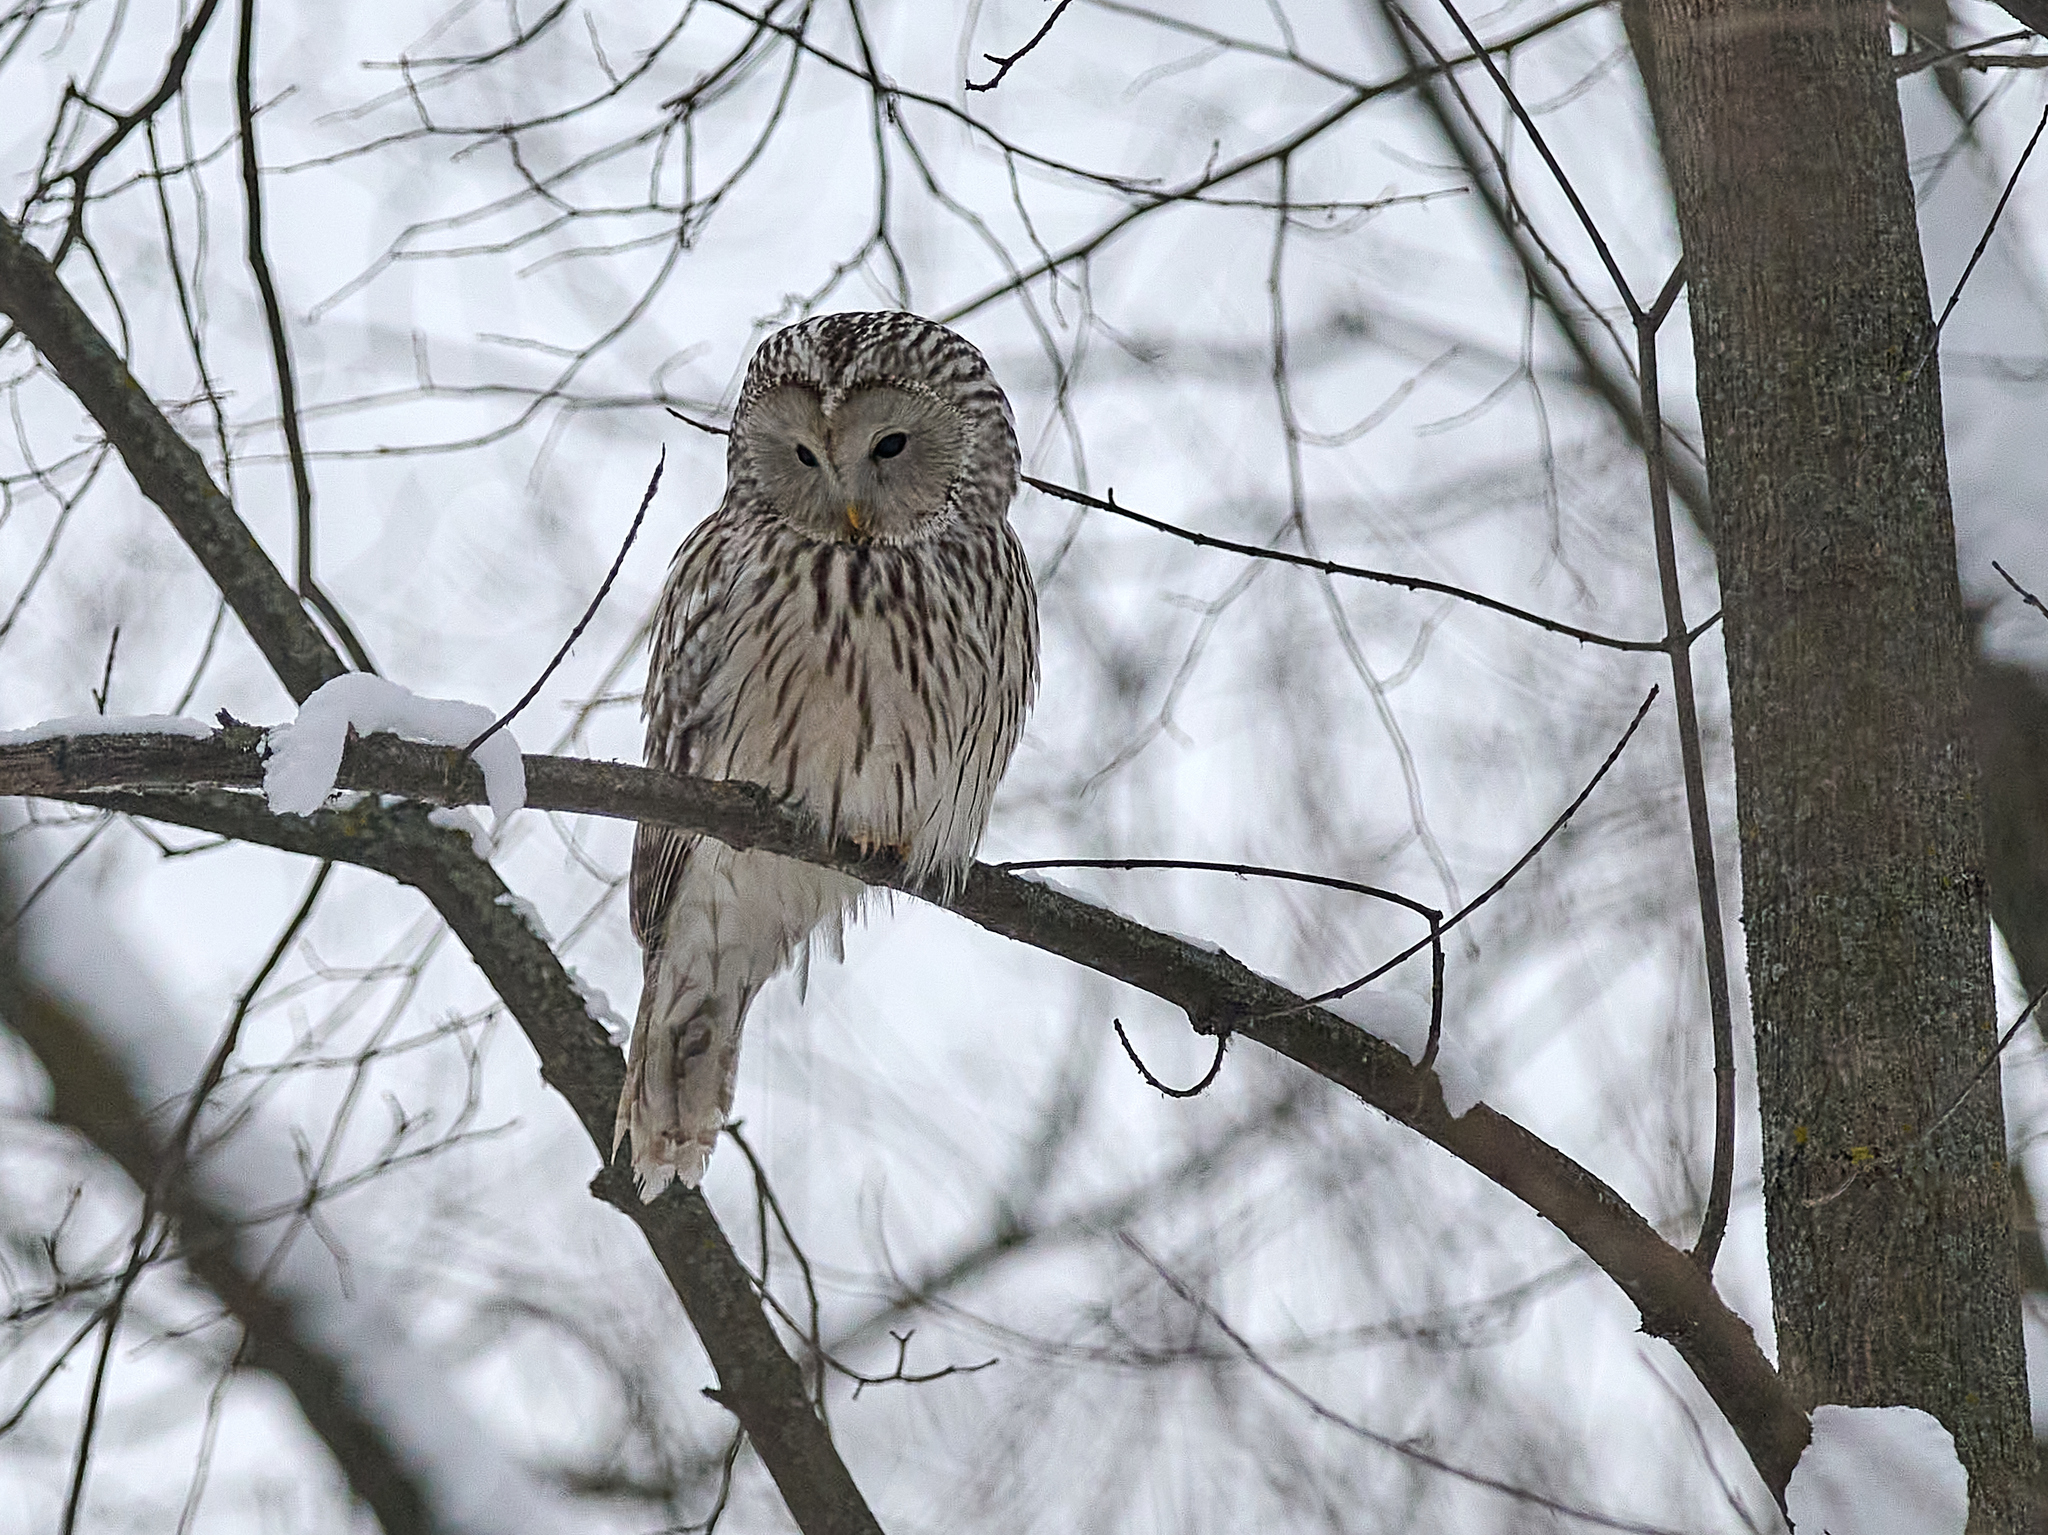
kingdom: Animalia
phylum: Chordata
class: Aves
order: Strigiformes
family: Strigidae
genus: Strix
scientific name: Strix uralensis
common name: Ural owl
